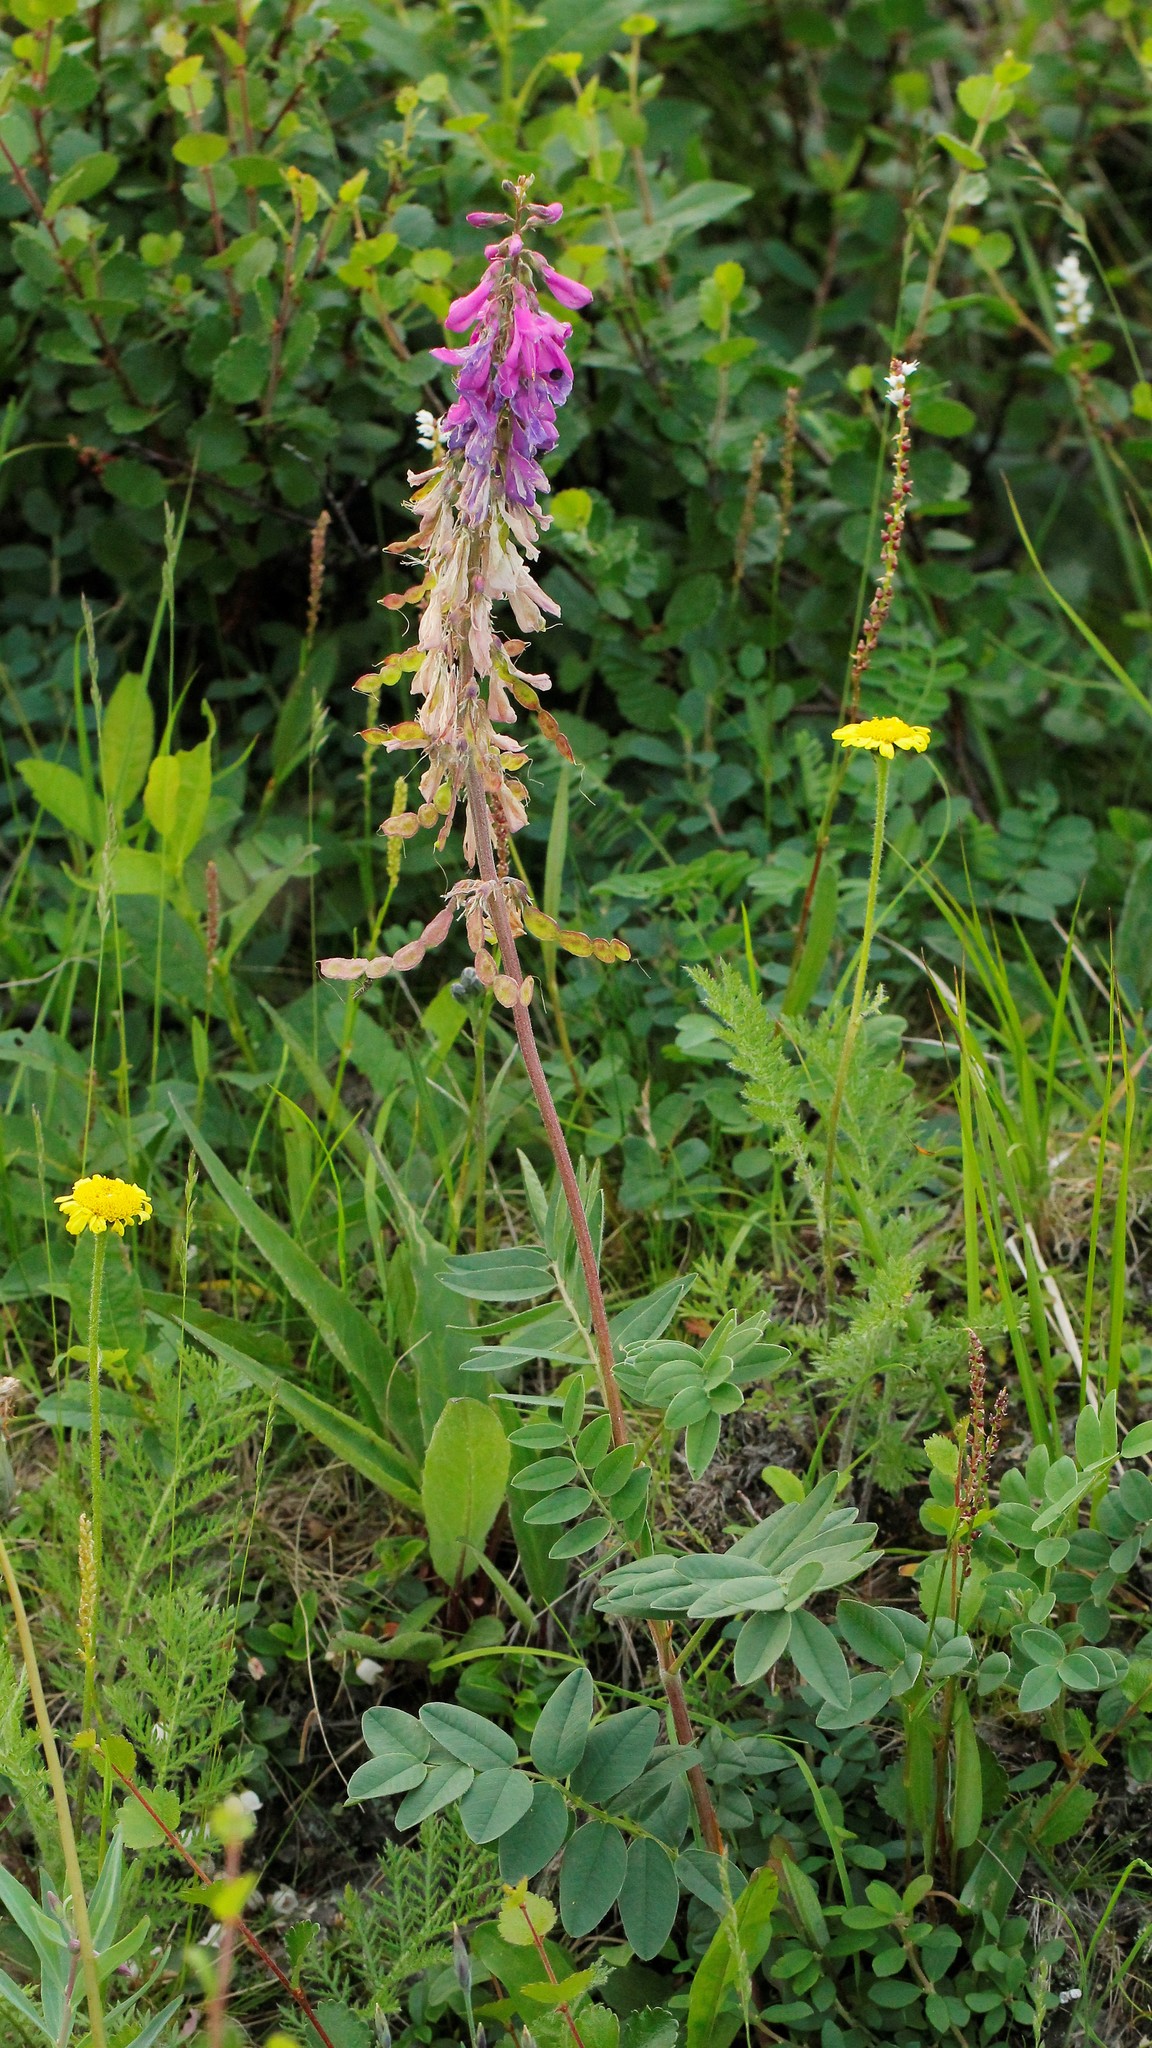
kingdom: Plantae
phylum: Tracheophyta
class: Magnoliopsida
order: Fabales
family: Fabaceae
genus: Hedysarum
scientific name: Hedysarum hedysaroides
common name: Alpine french-honeysuckle
